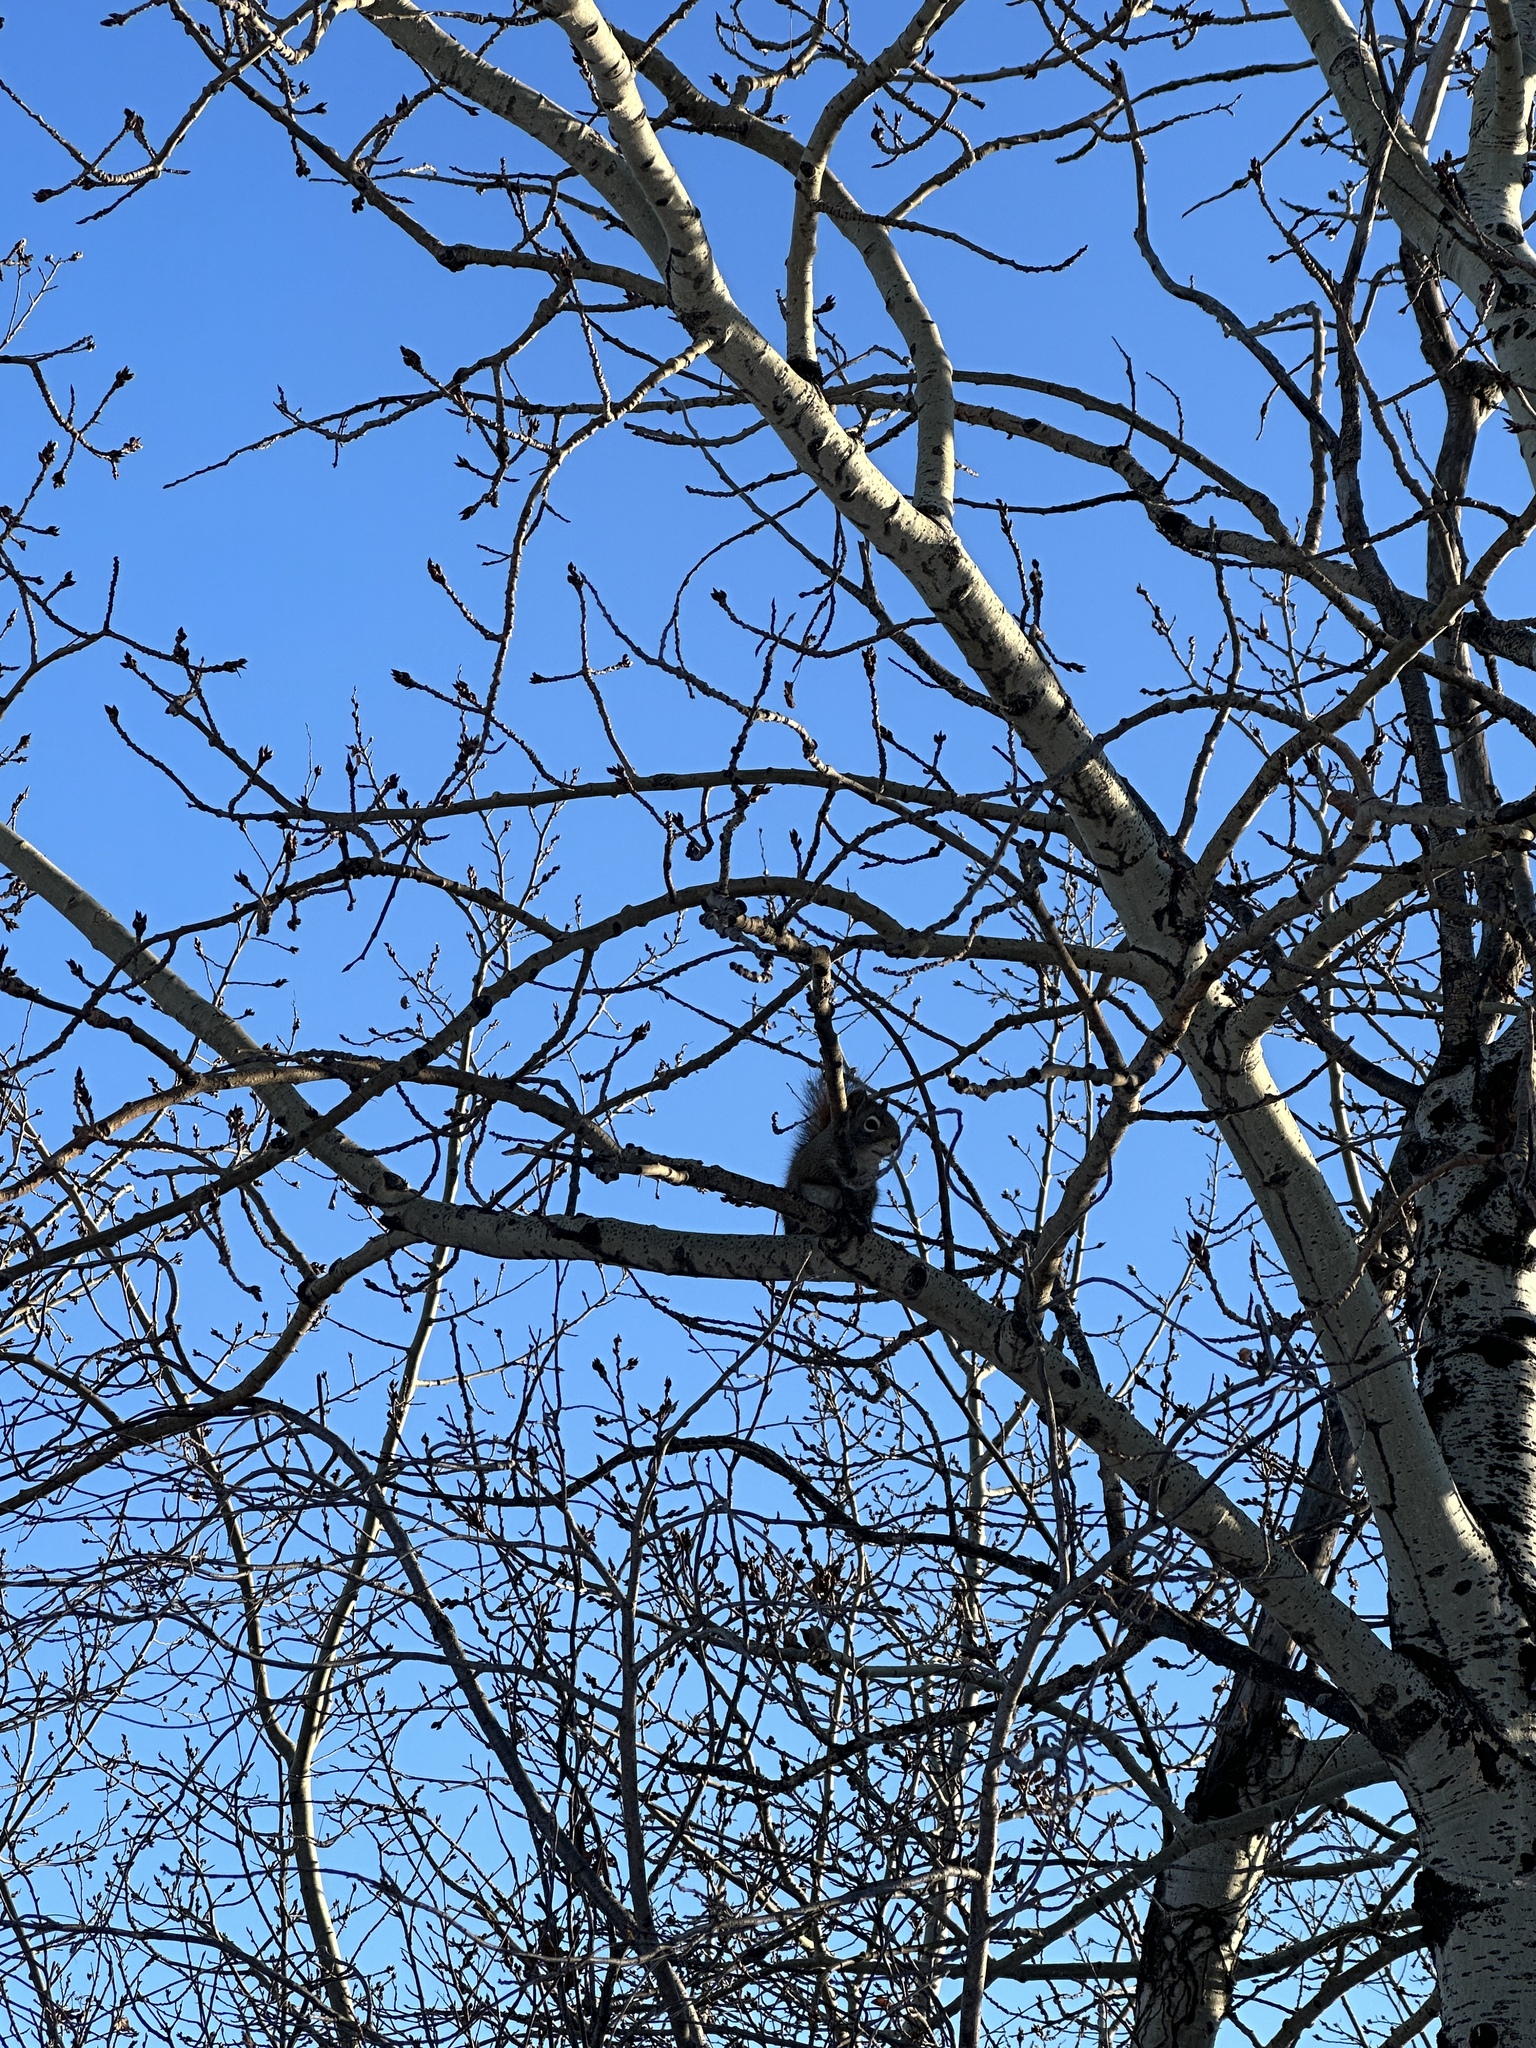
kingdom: Animalia
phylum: Chordata
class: Mammalia
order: Rodentia
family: Sciuridae
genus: Tamiasciurus
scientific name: Tamiasciurus hudsonicus
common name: Red squirrel
